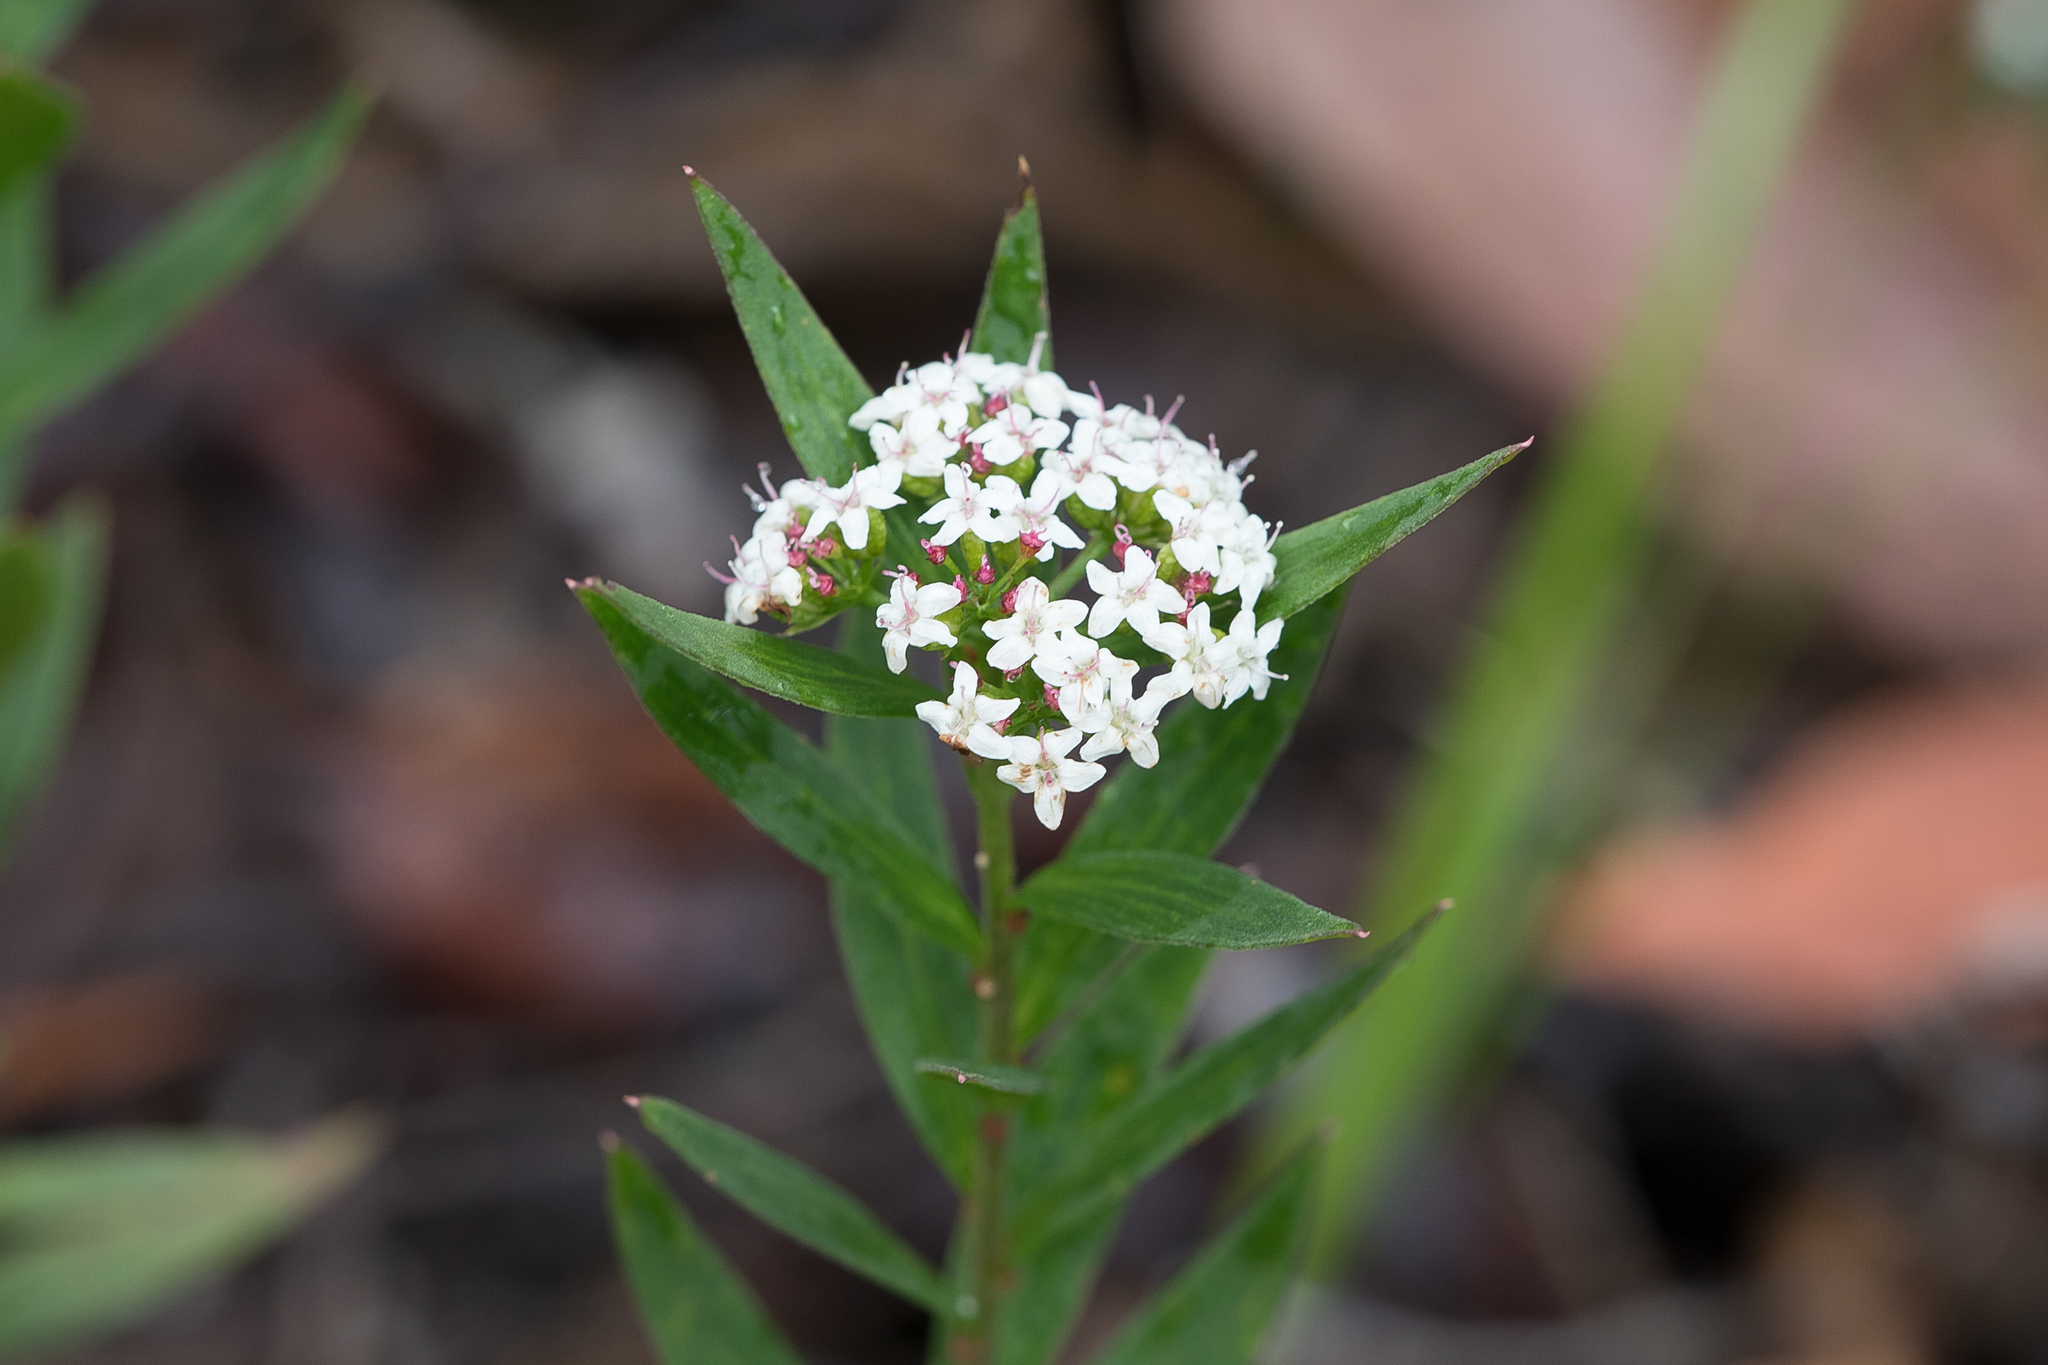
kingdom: Plantae
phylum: Tracheophyta
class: Magnoliopsida
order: Apiales
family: Apiaceae
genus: Platysace
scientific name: Platysace lanceolata
